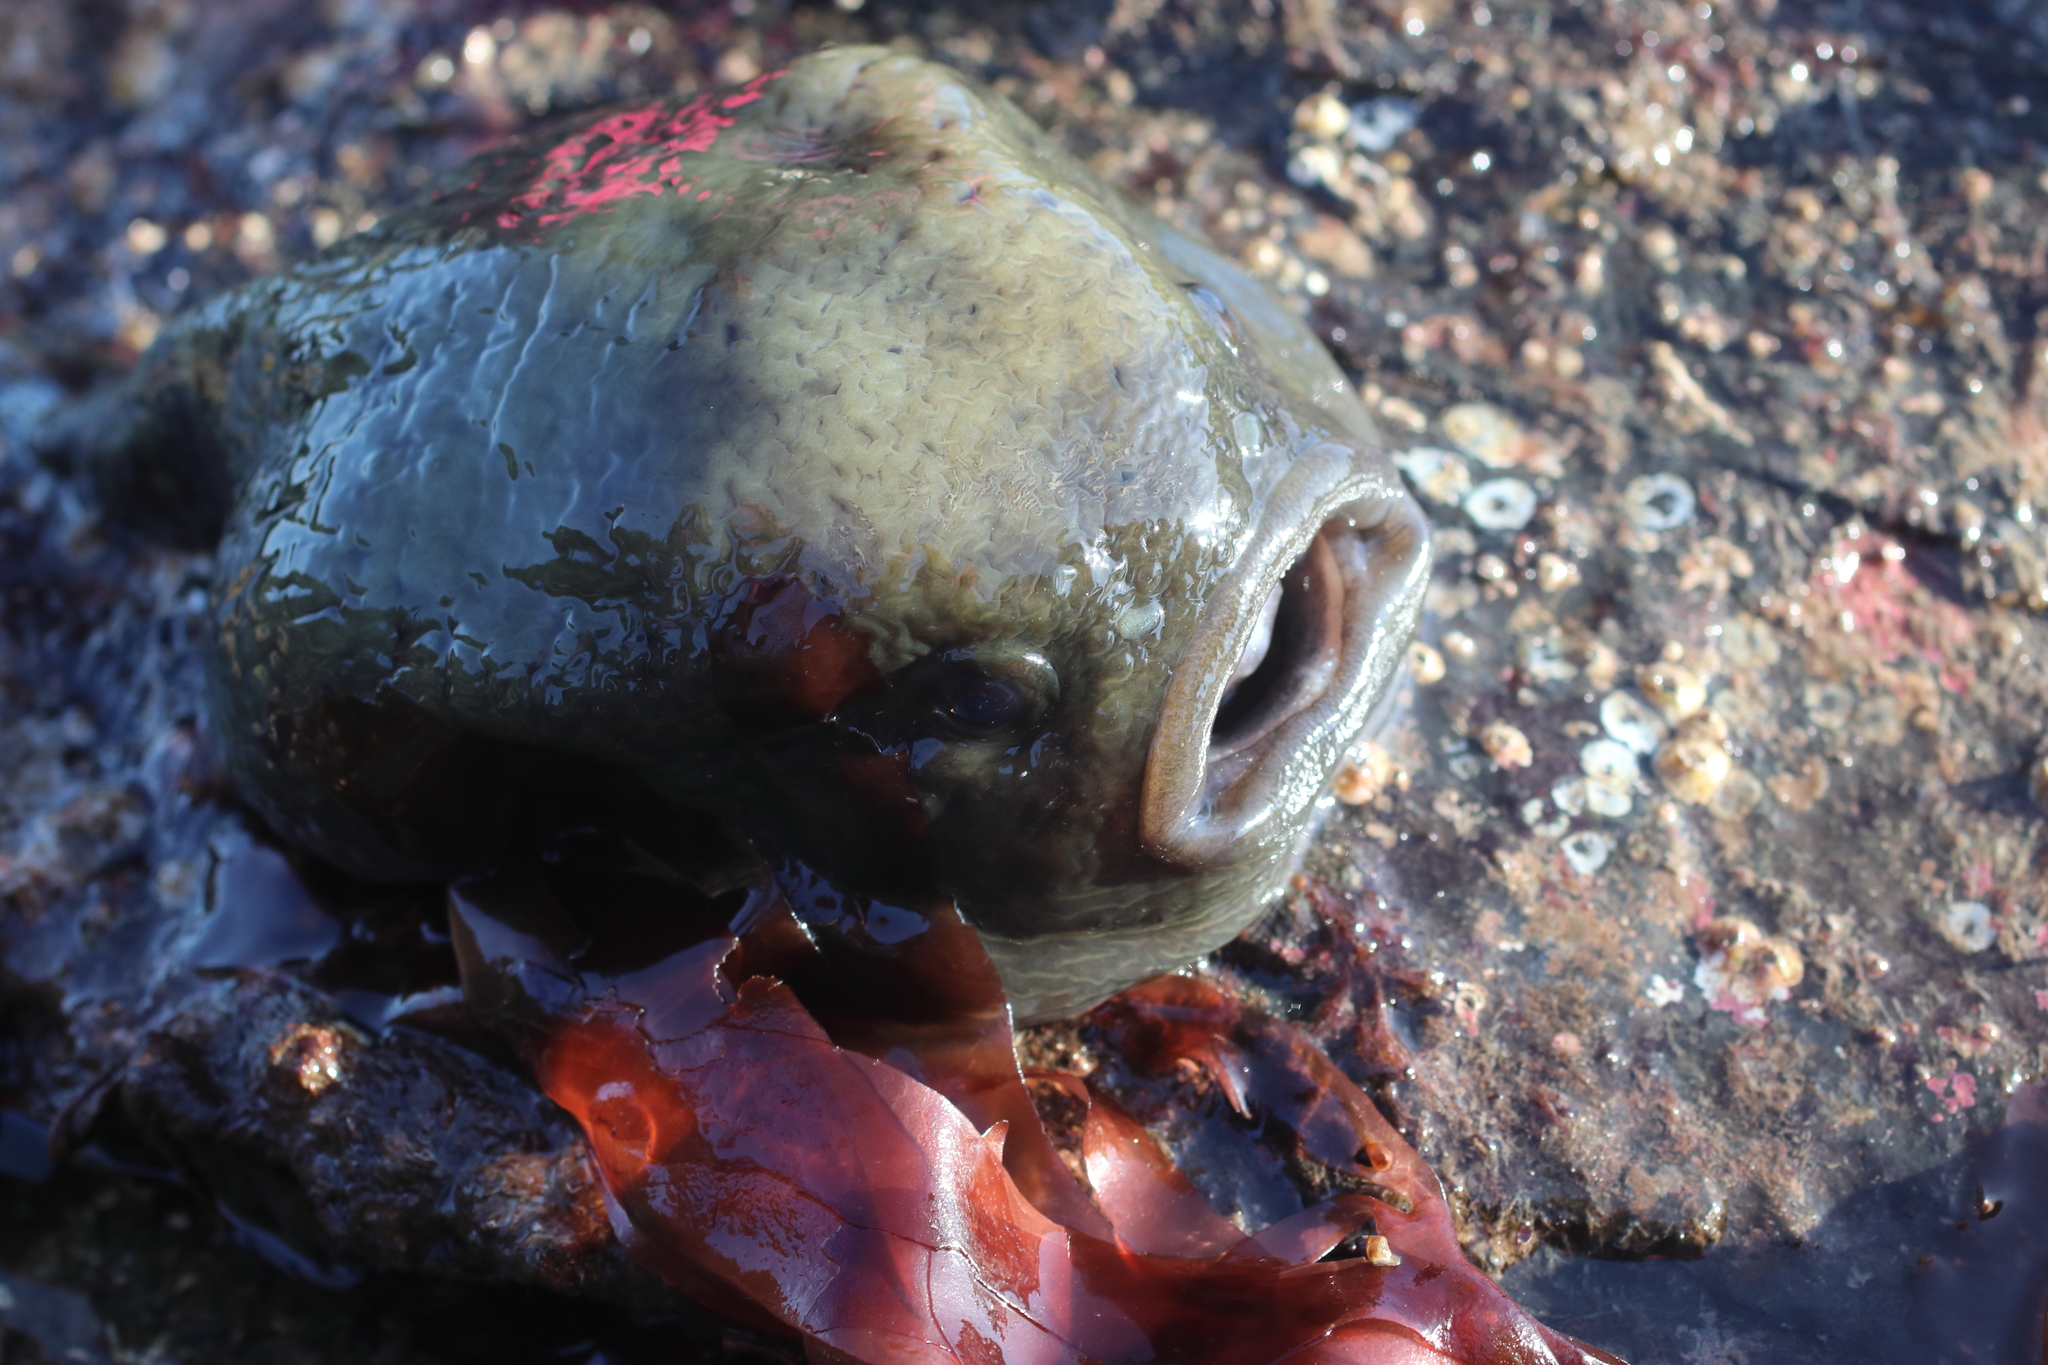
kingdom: Animalia
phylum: Chordata
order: Scorpaeniformes
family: Cyclopteridae
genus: Aptocyclus
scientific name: Aptocyclus ventricosus
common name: Smooth lumpsucker
